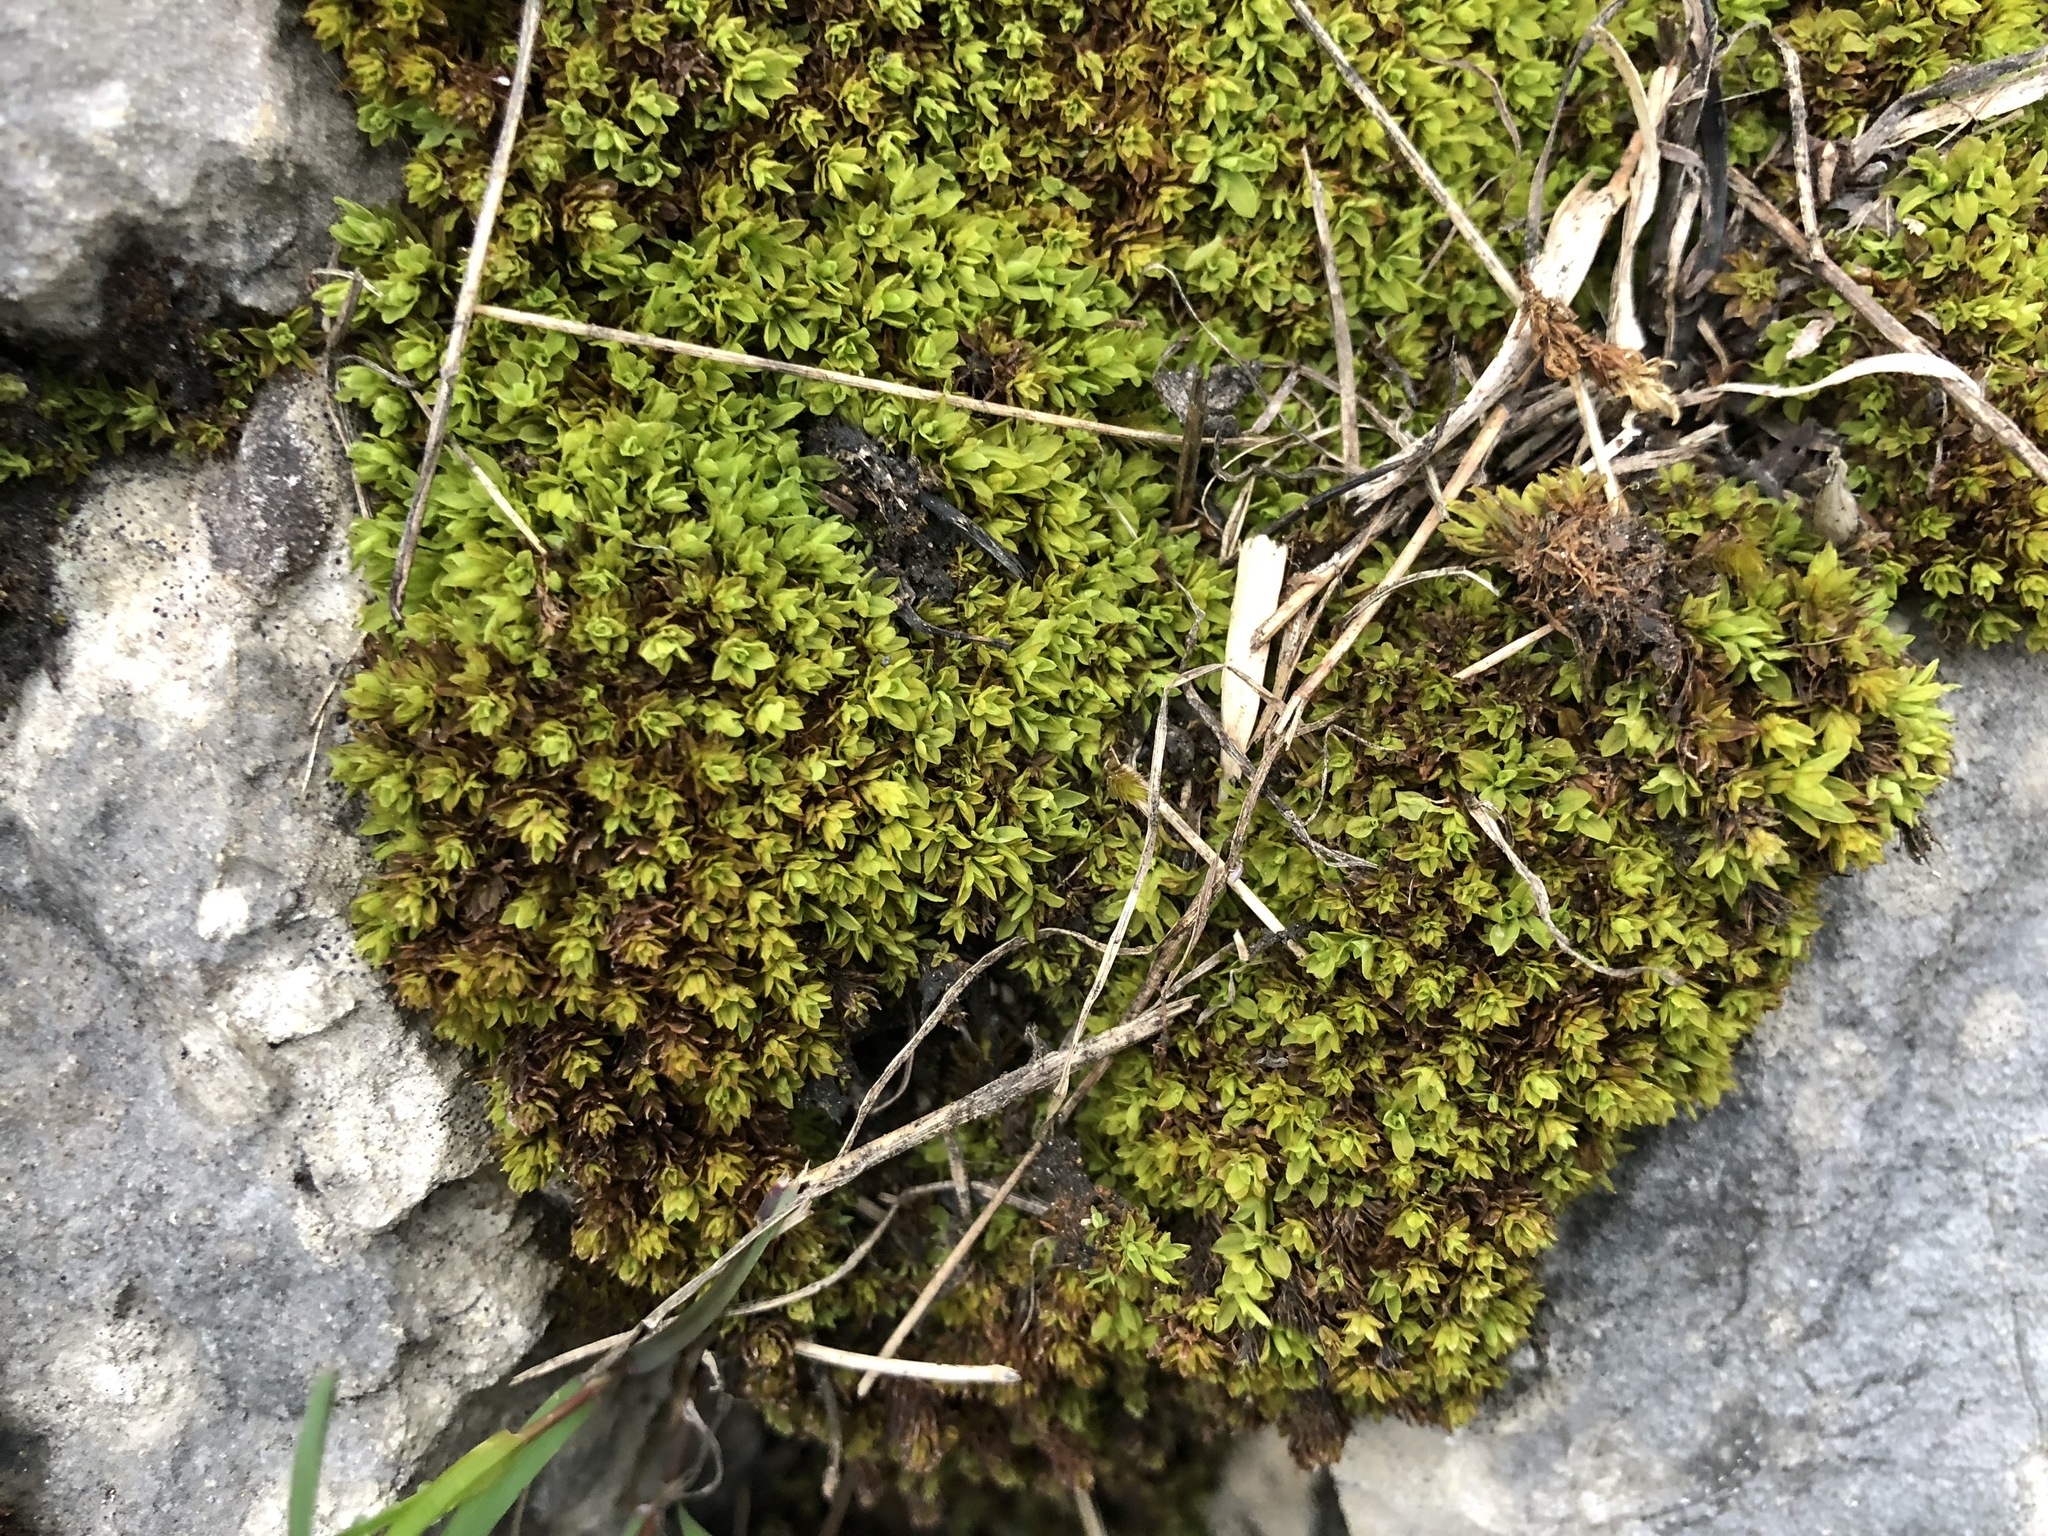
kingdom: Plantae
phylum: Bryophyta
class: Bryopsida
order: Encalyptales
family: Encalyptaceae
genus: Encalypta
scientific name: Encalypta streptocarpa
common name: Spiral extinguisher-moss
